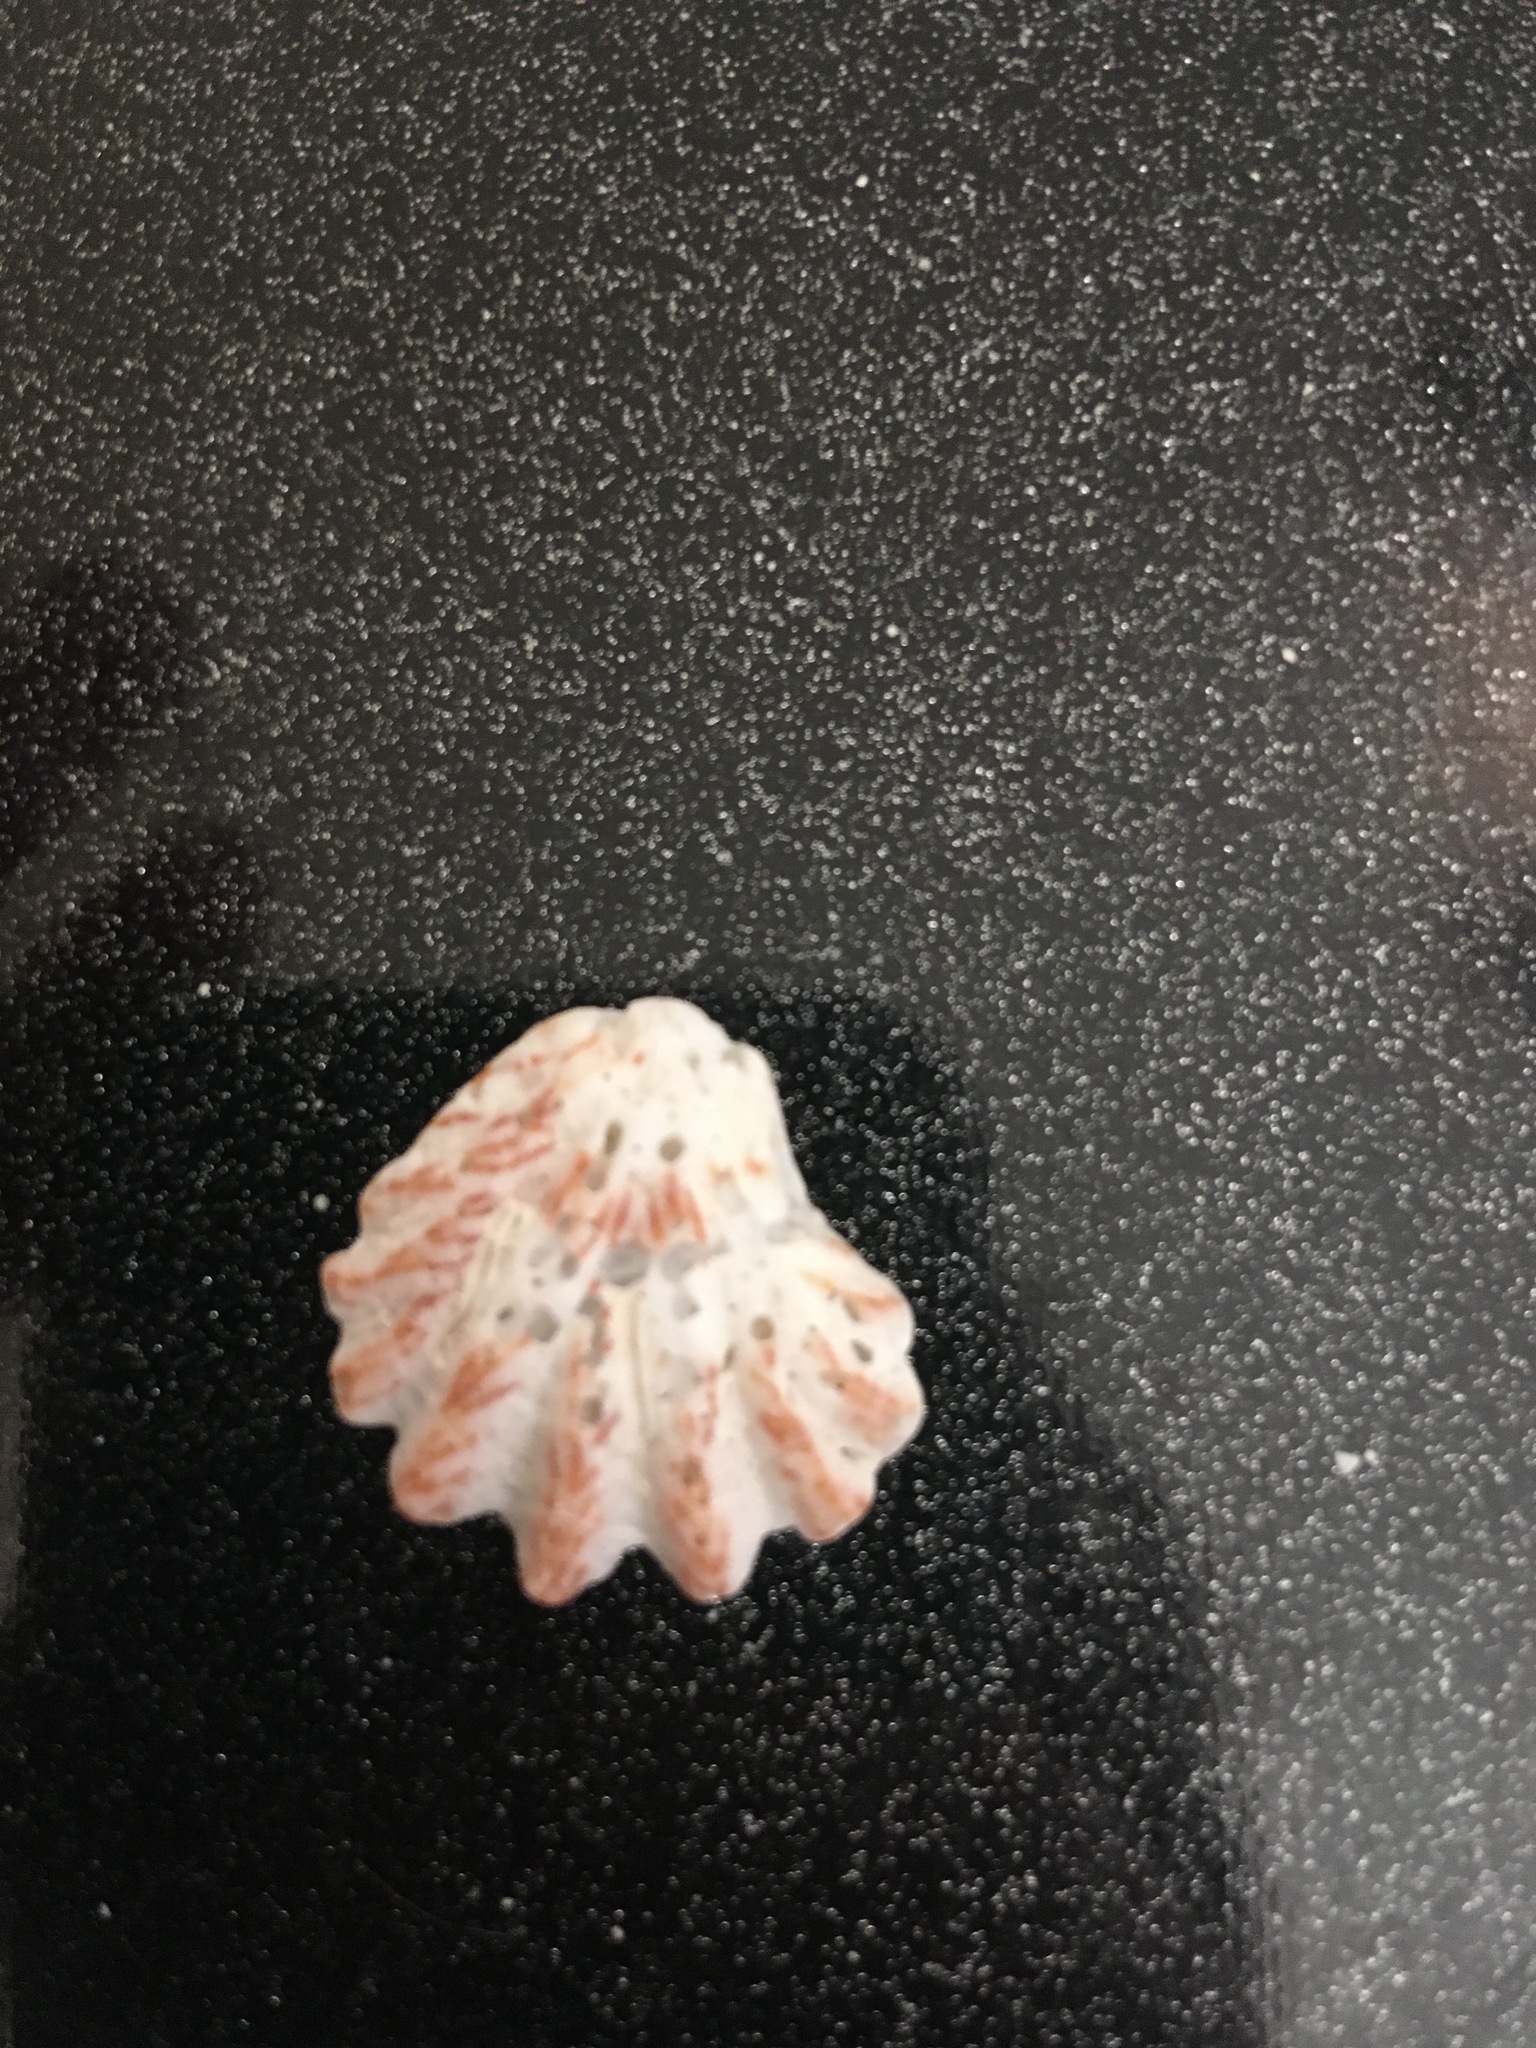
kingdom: Animalia
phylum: Mollusca
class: Bivalvia
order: Pectinida
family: Plicatulidae
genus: Plicatula
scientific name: Plicatula gibbosa
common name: Atlantic kitten's paw
